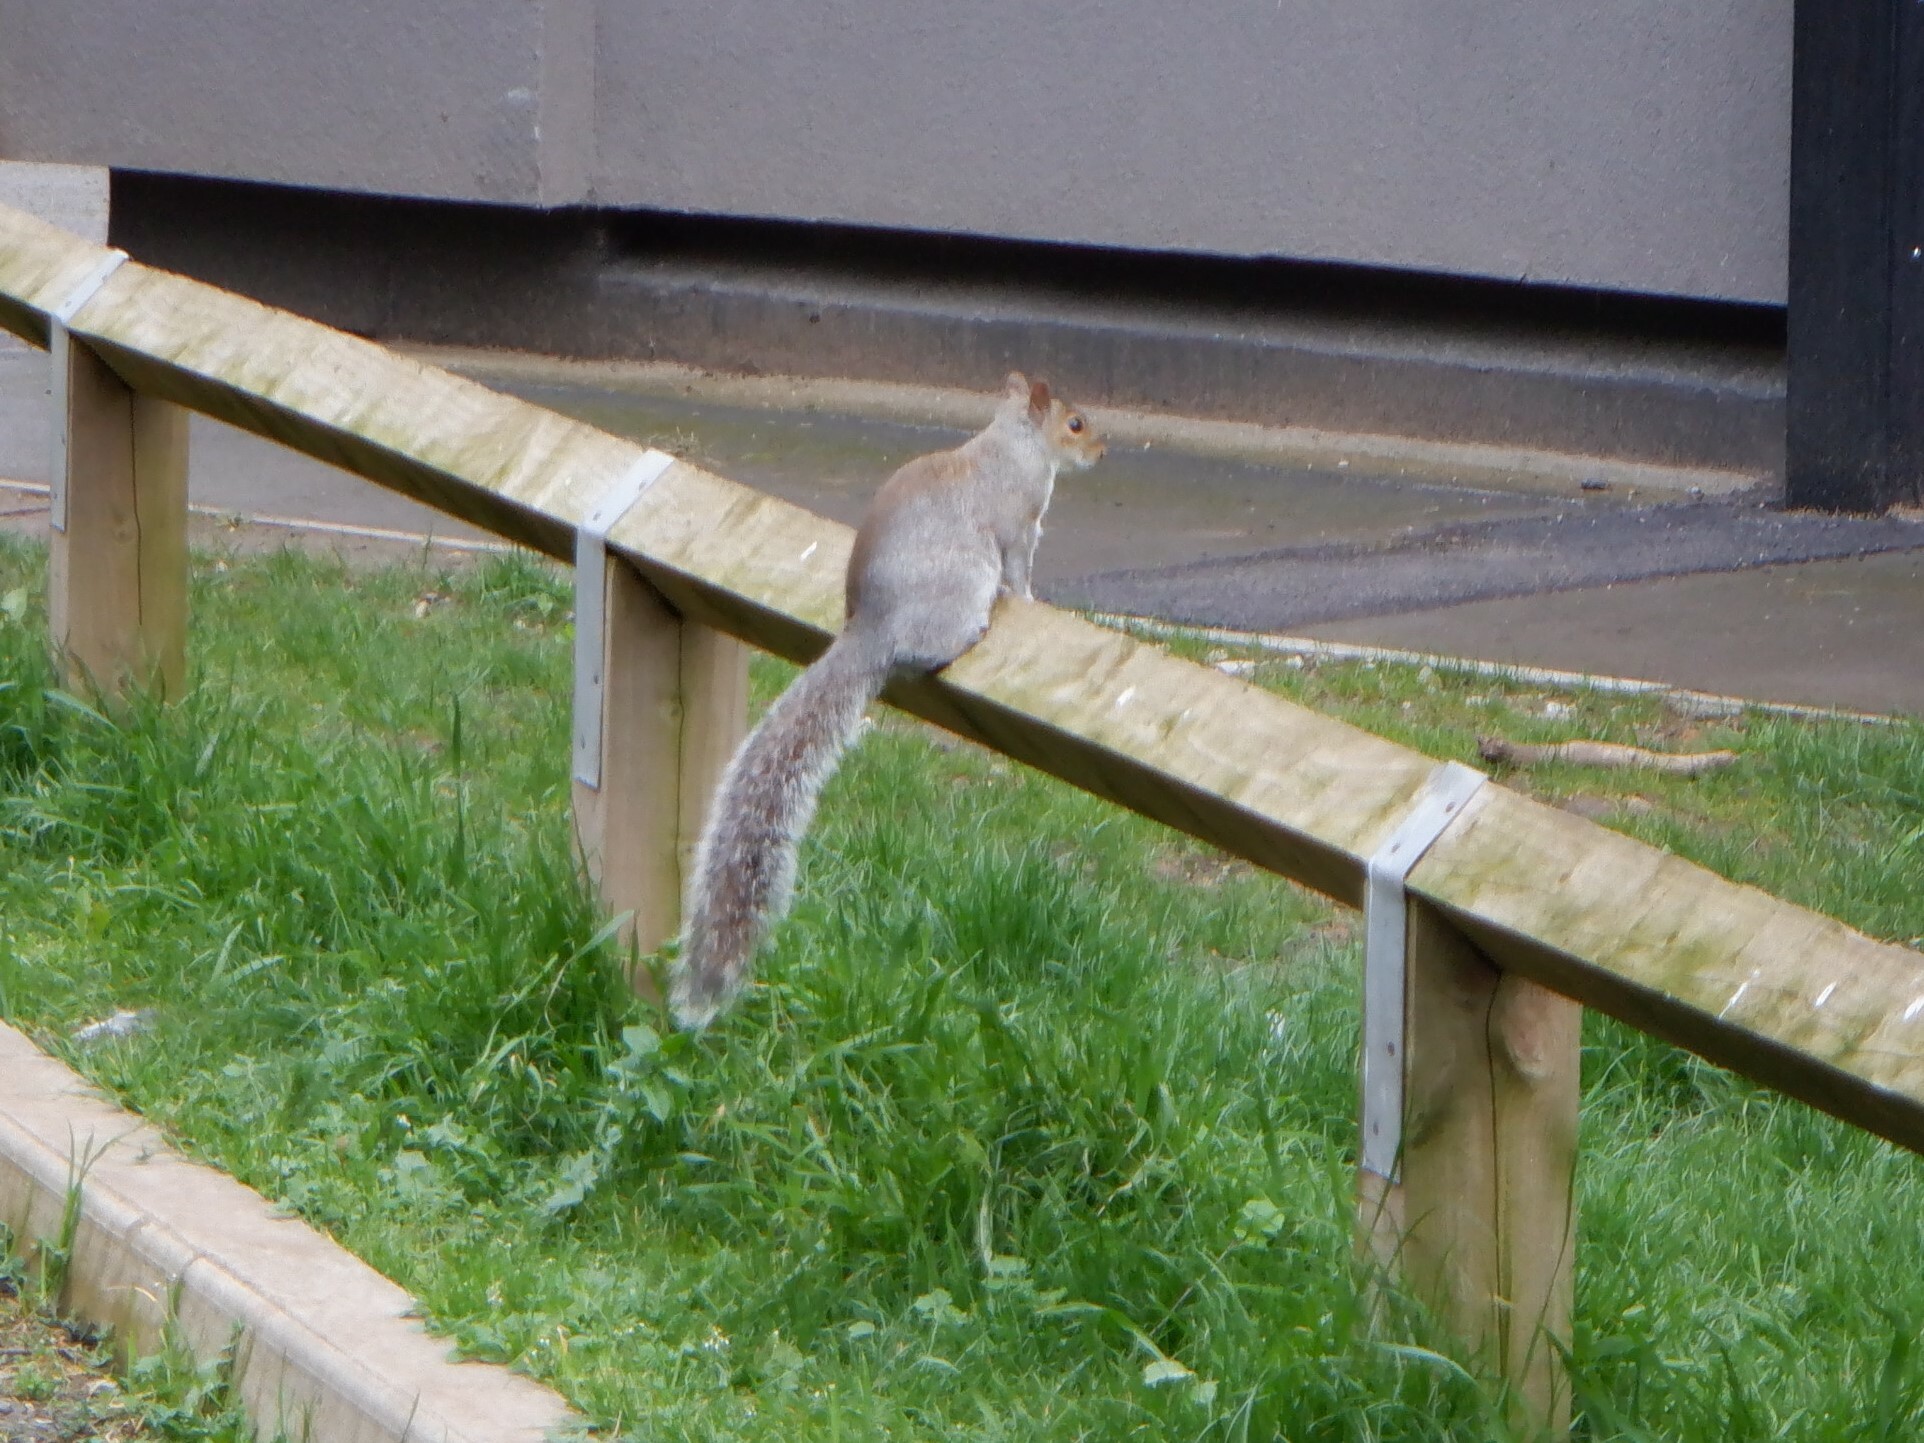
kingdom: Animalia
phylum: Chordata
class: Mammalia
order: Rodentia
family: Sciuridae
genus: Sciurus
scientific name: Sciurus carolinensis
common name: Eastern gray squirrel
